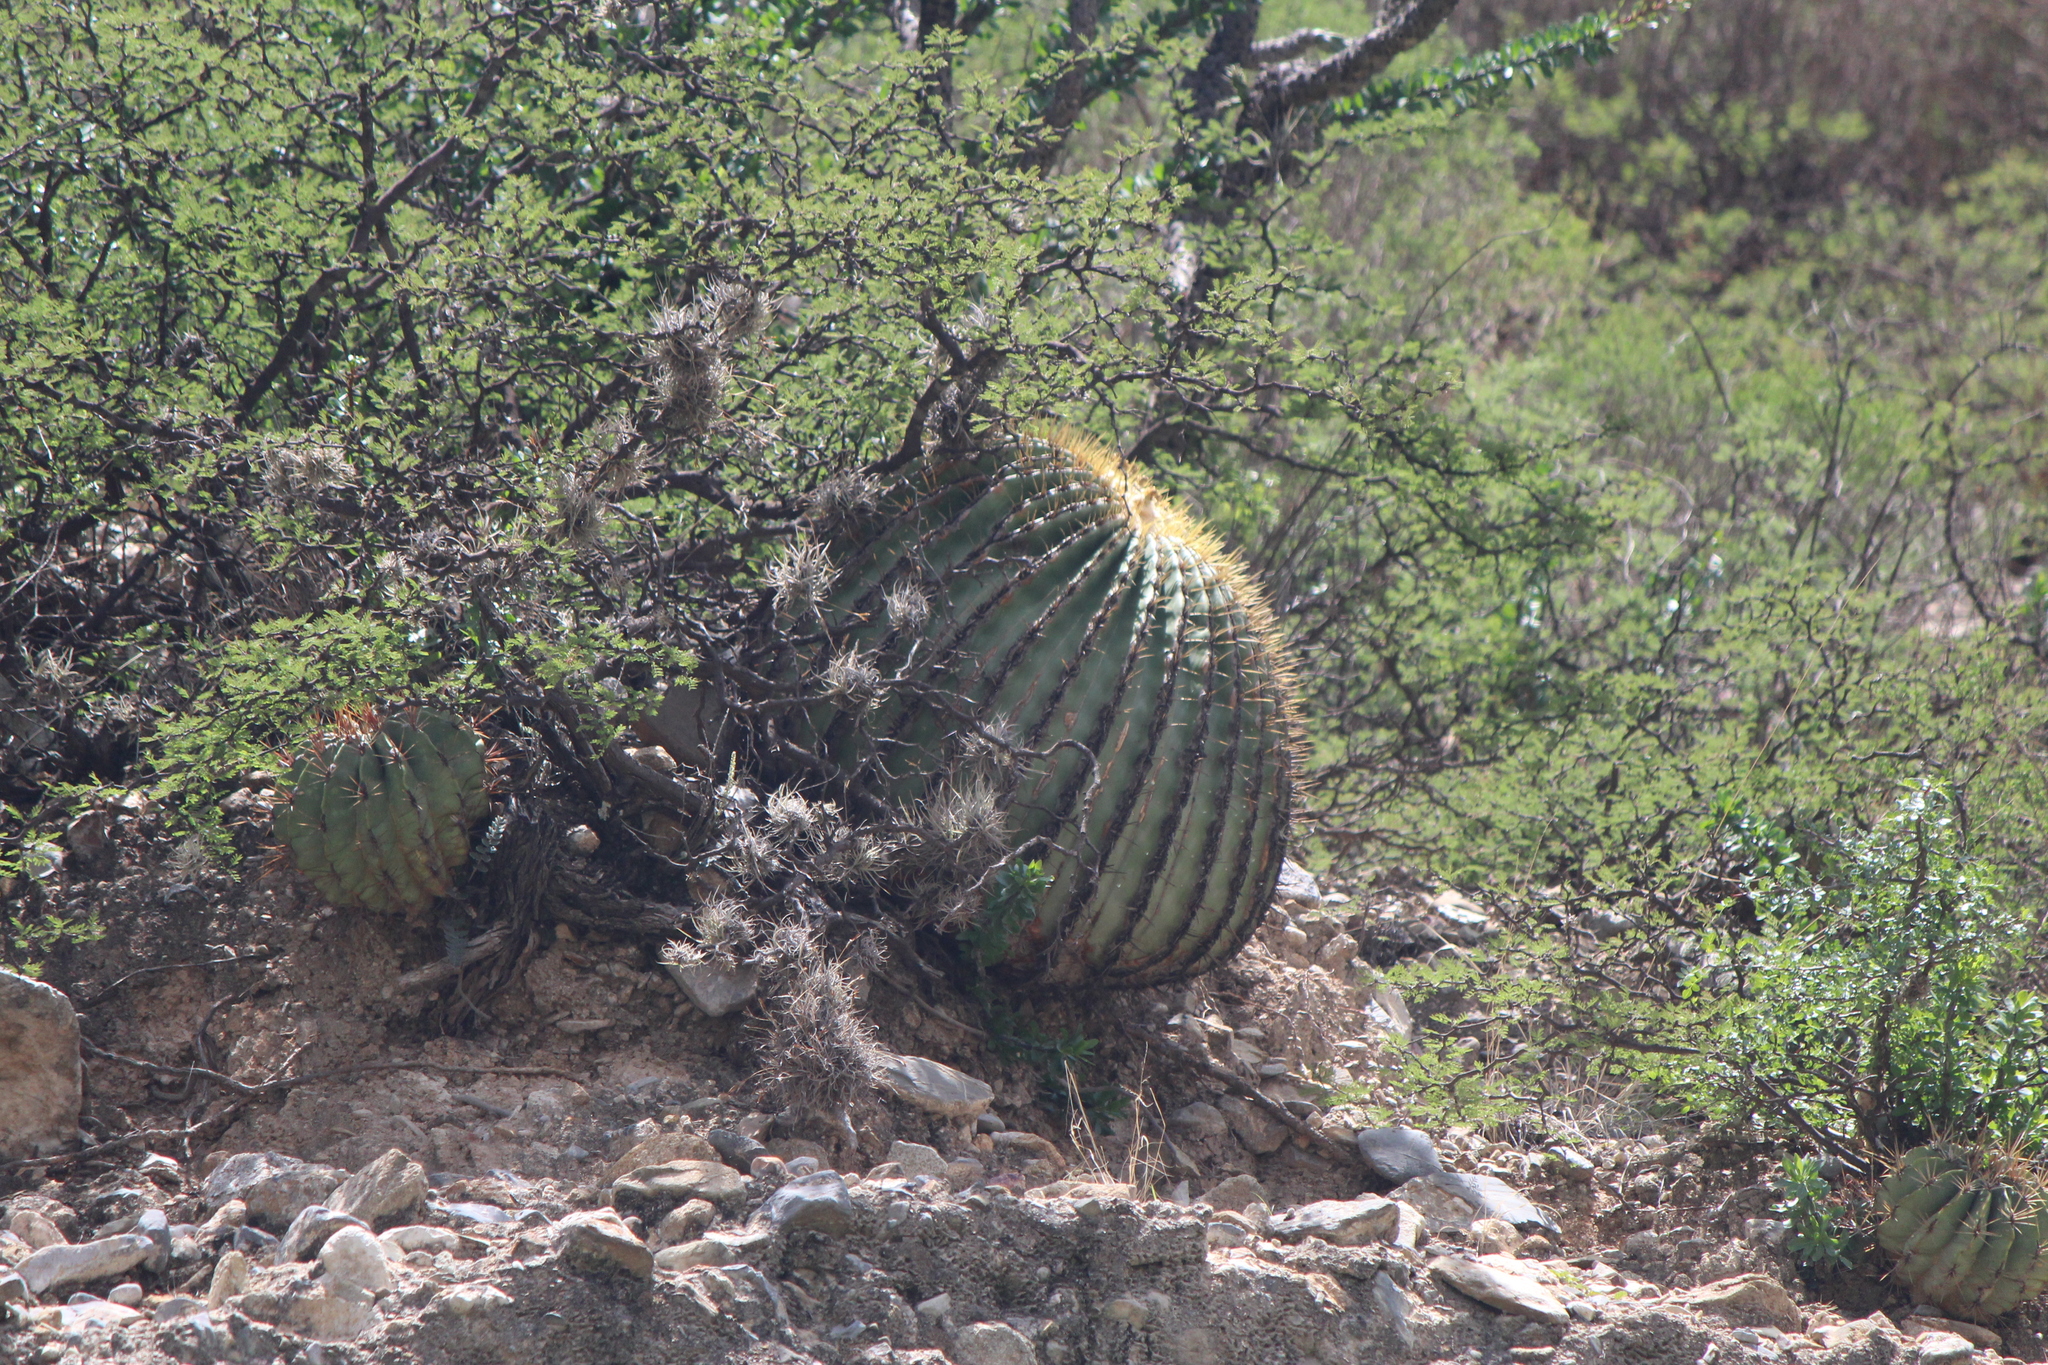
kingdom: Plantae
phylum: Tracheophyta
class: Magnoliopsida
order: Caryophyllales
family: Cactaceae
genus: Echinocactus
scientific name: Echinocactus platyacanthus
